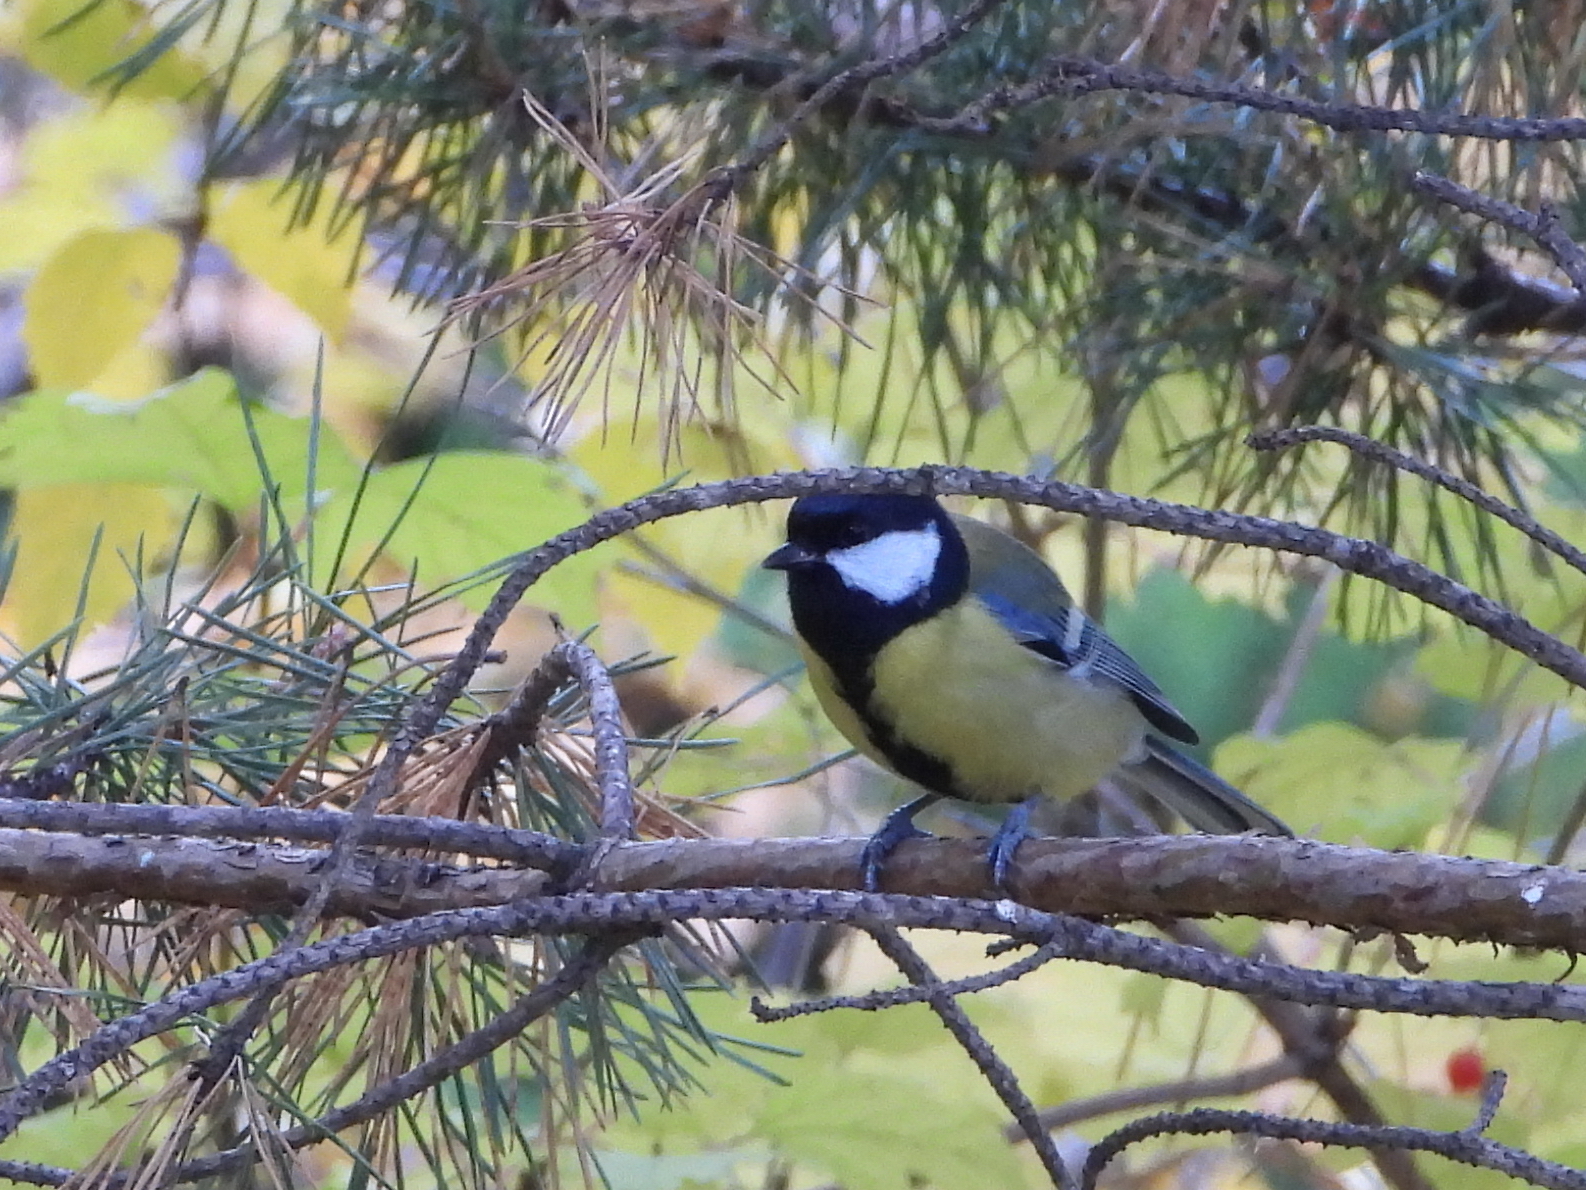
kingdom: Animalia
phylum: Chordata
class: Aves
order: Passeriformes
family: Paridae
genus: Parus
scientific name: Parus major
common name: Great tit
